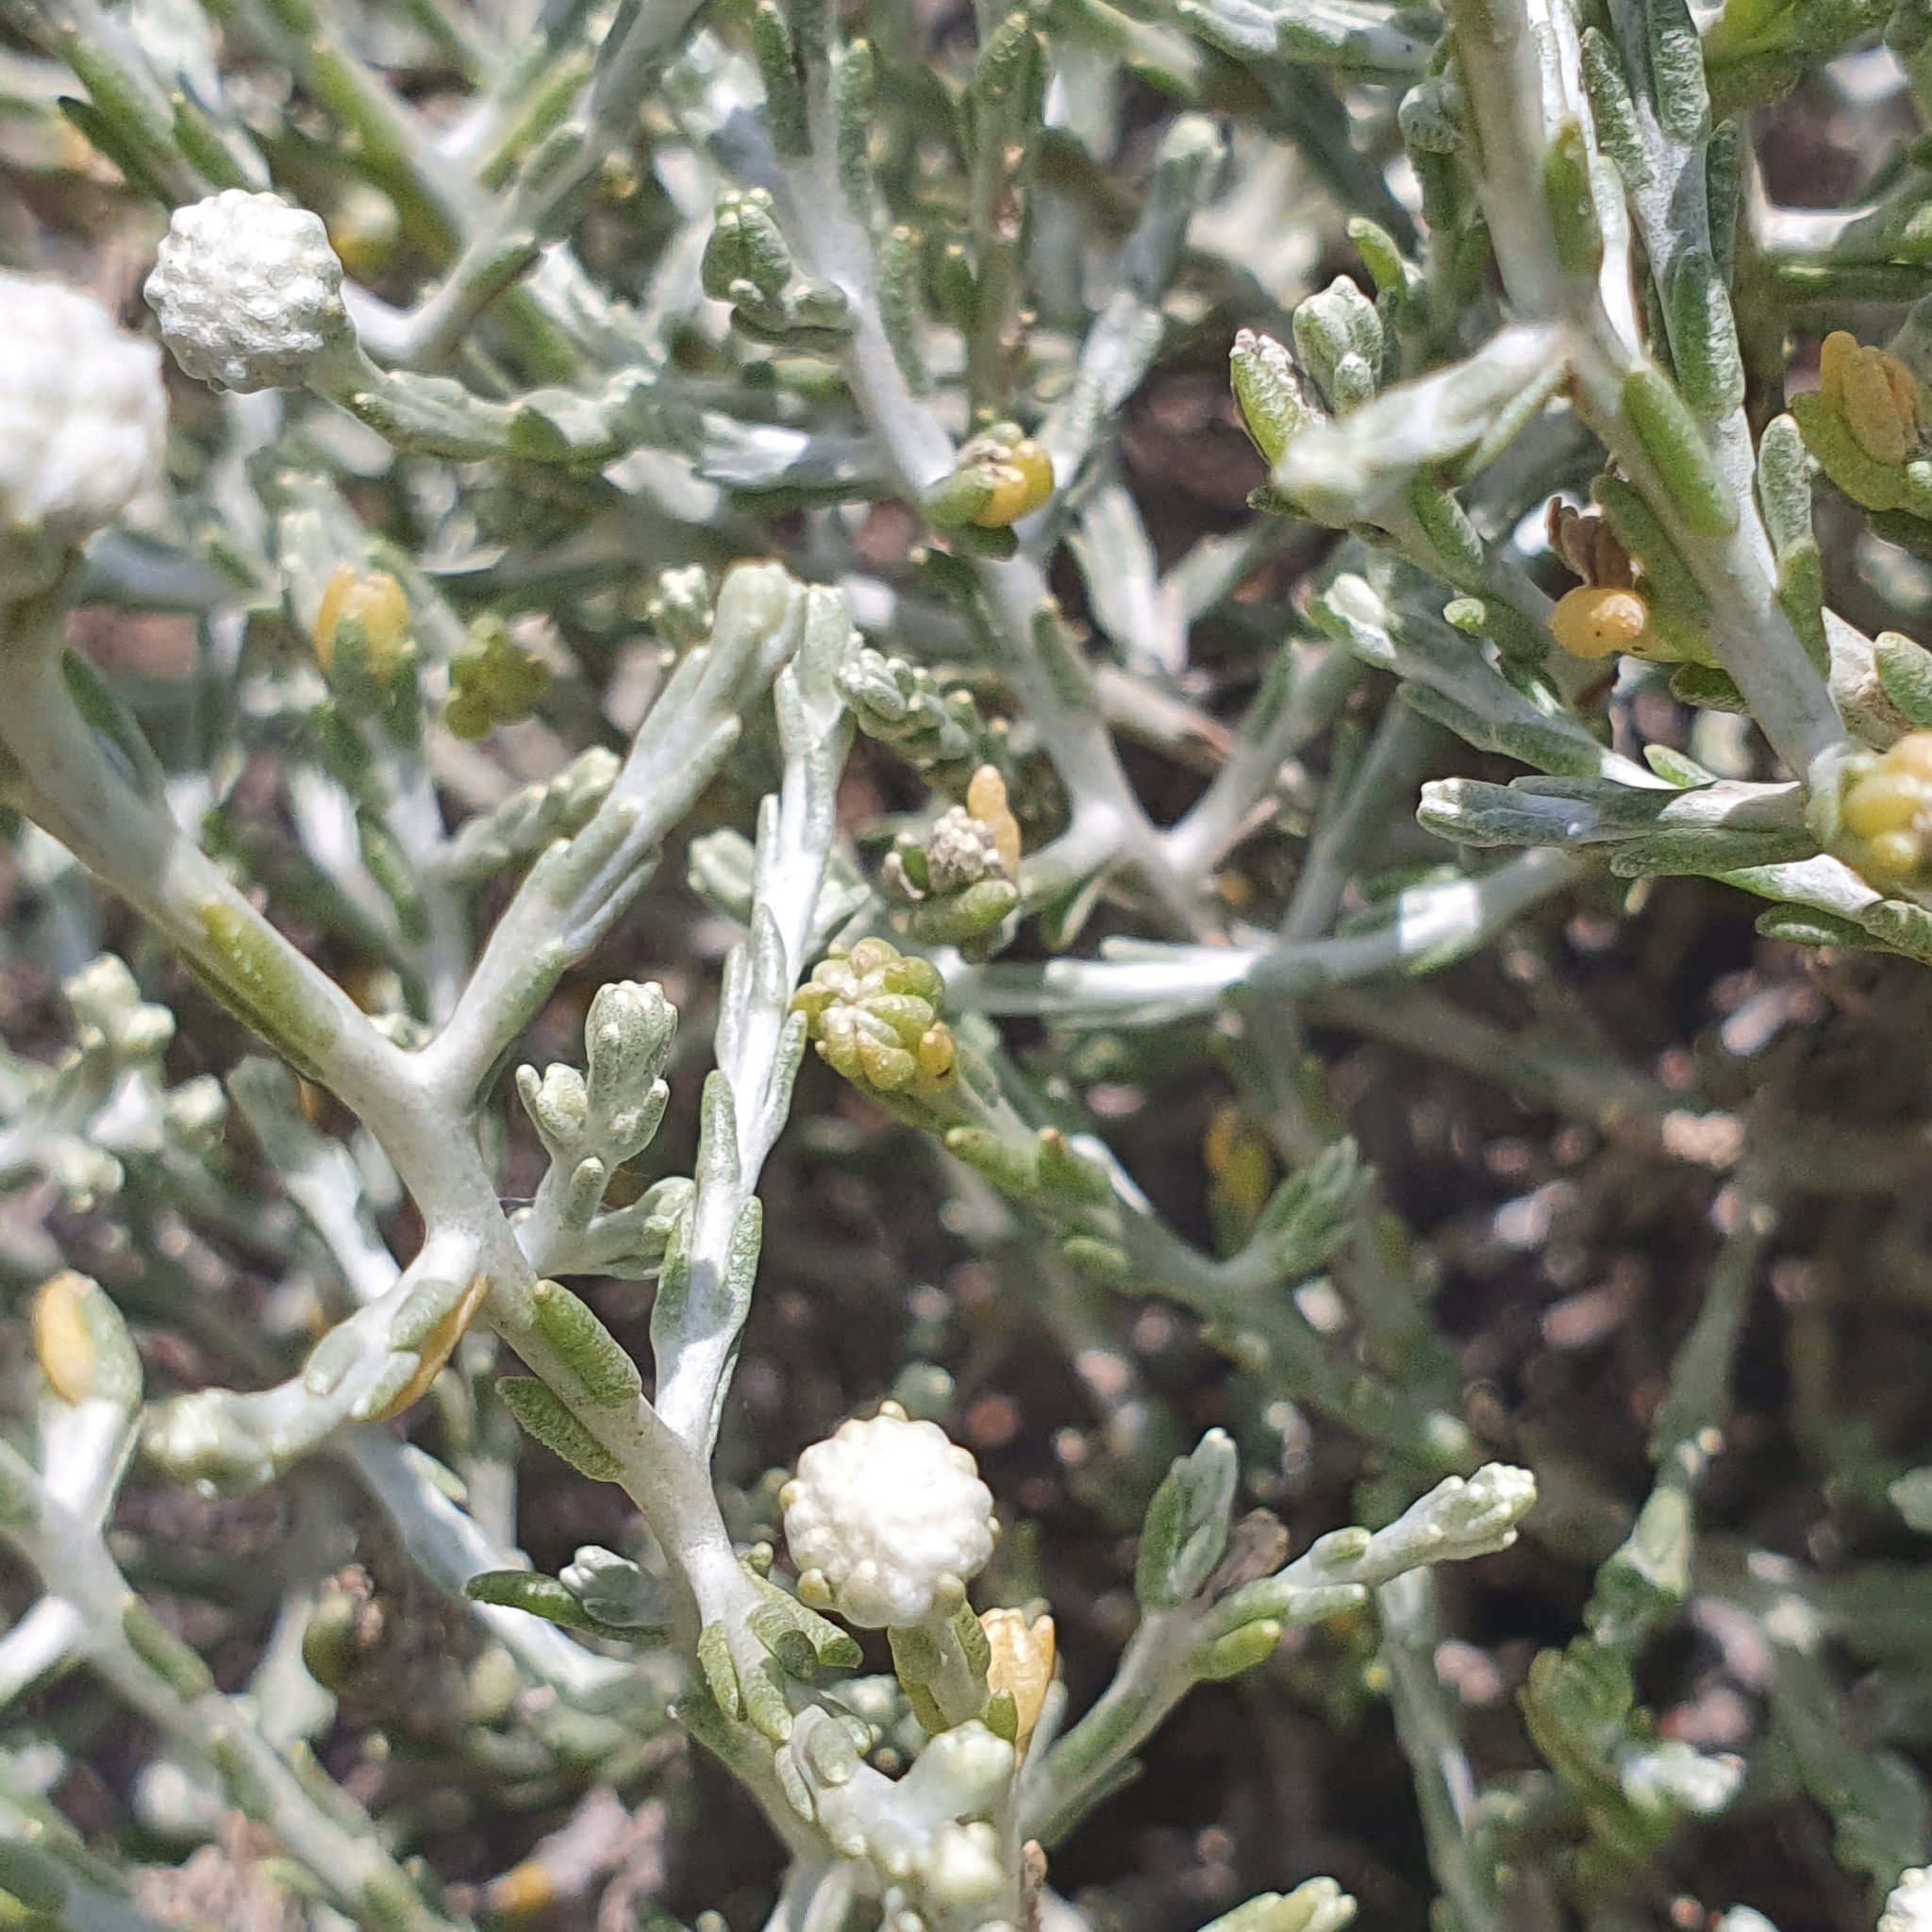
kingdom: Plantae
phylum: Tracheophyta
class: Magnoliopsida
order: Asterales
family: Asteraceae
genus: Calocephalus
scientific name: Calocephalus brownii
